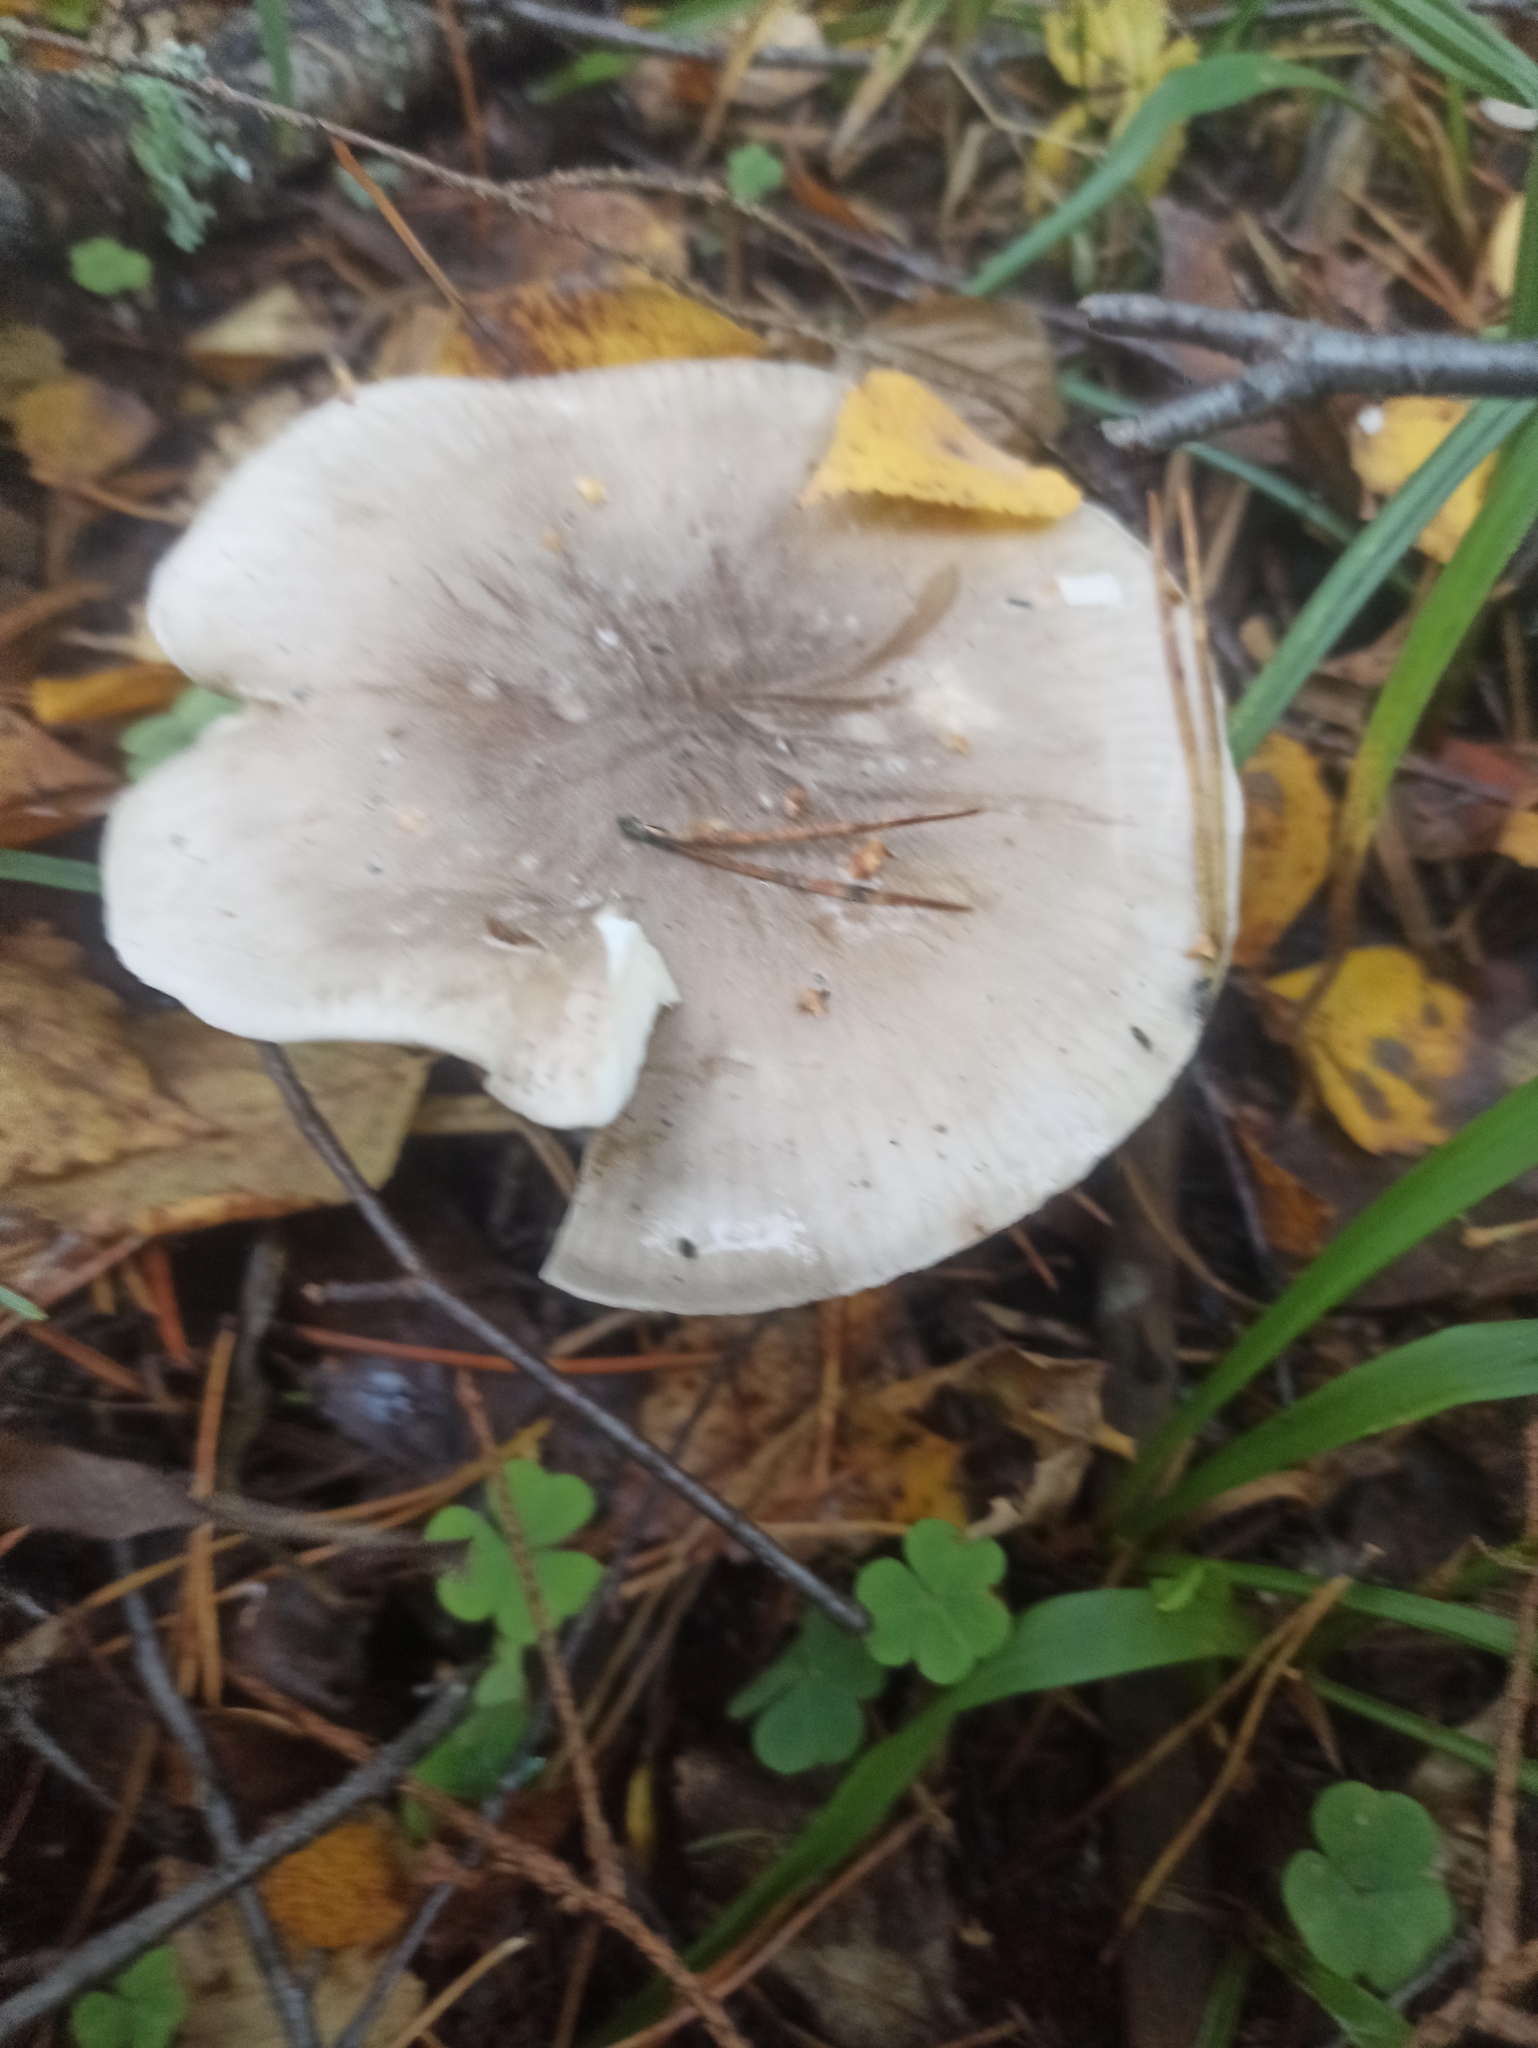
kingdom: Fungi
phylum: Basidiomycota
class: Agaricomycetes
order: Agaricales
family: Tricholomataceae
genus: Clitocybe
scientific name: Clitocybe nebularis
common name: Clouded agaric
